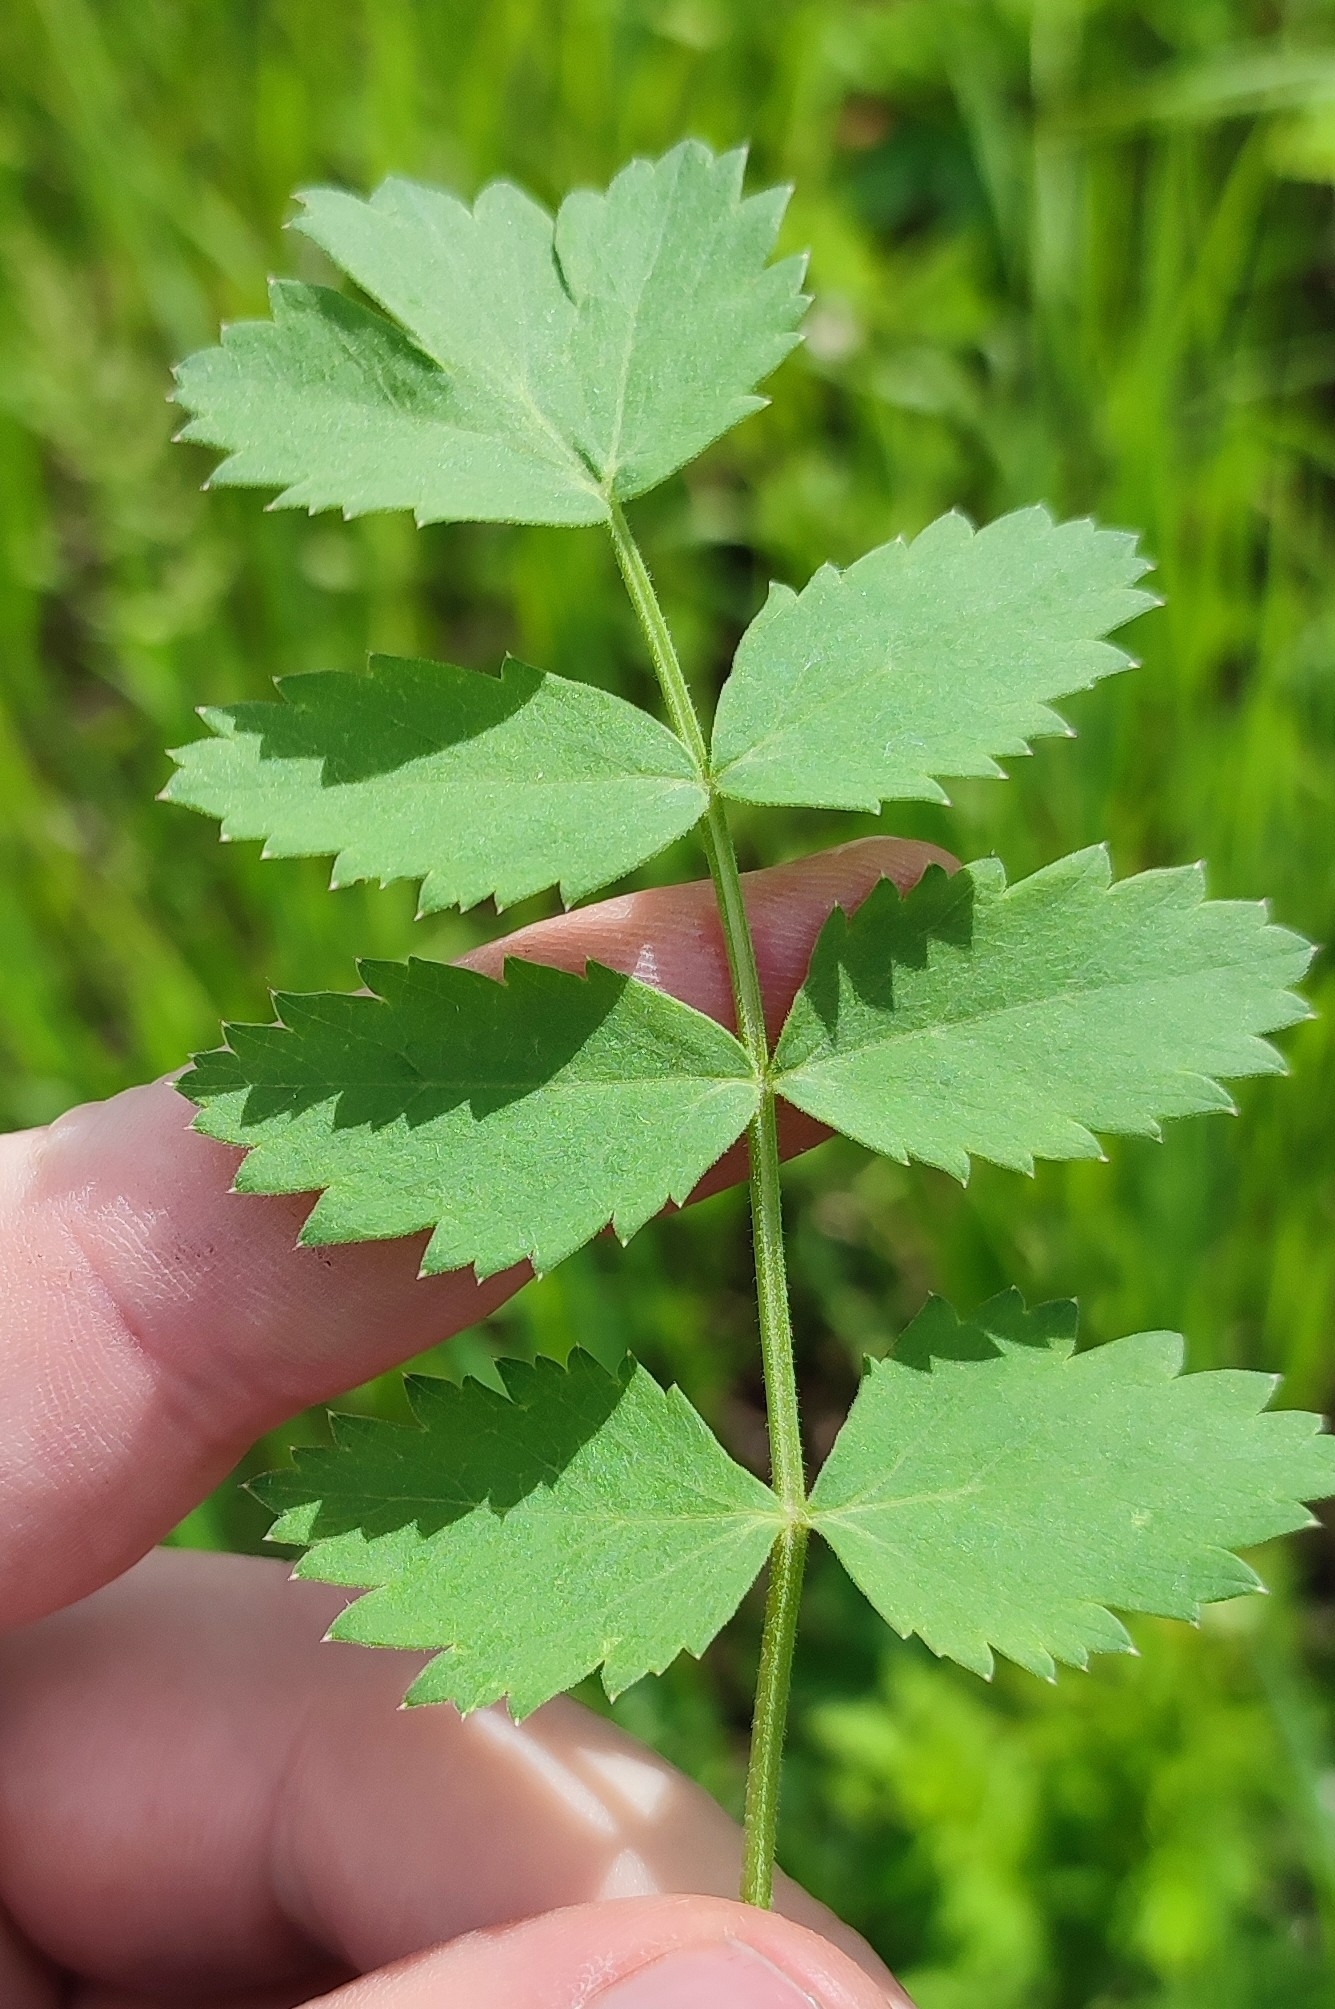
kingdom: Plantae
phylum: Tracheophyta
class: Magnoliopsida
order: Apiales
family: Apiaceae
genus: Pimpinella
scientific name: Pimpinella saxifraga
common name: Burnet-saxifrage
